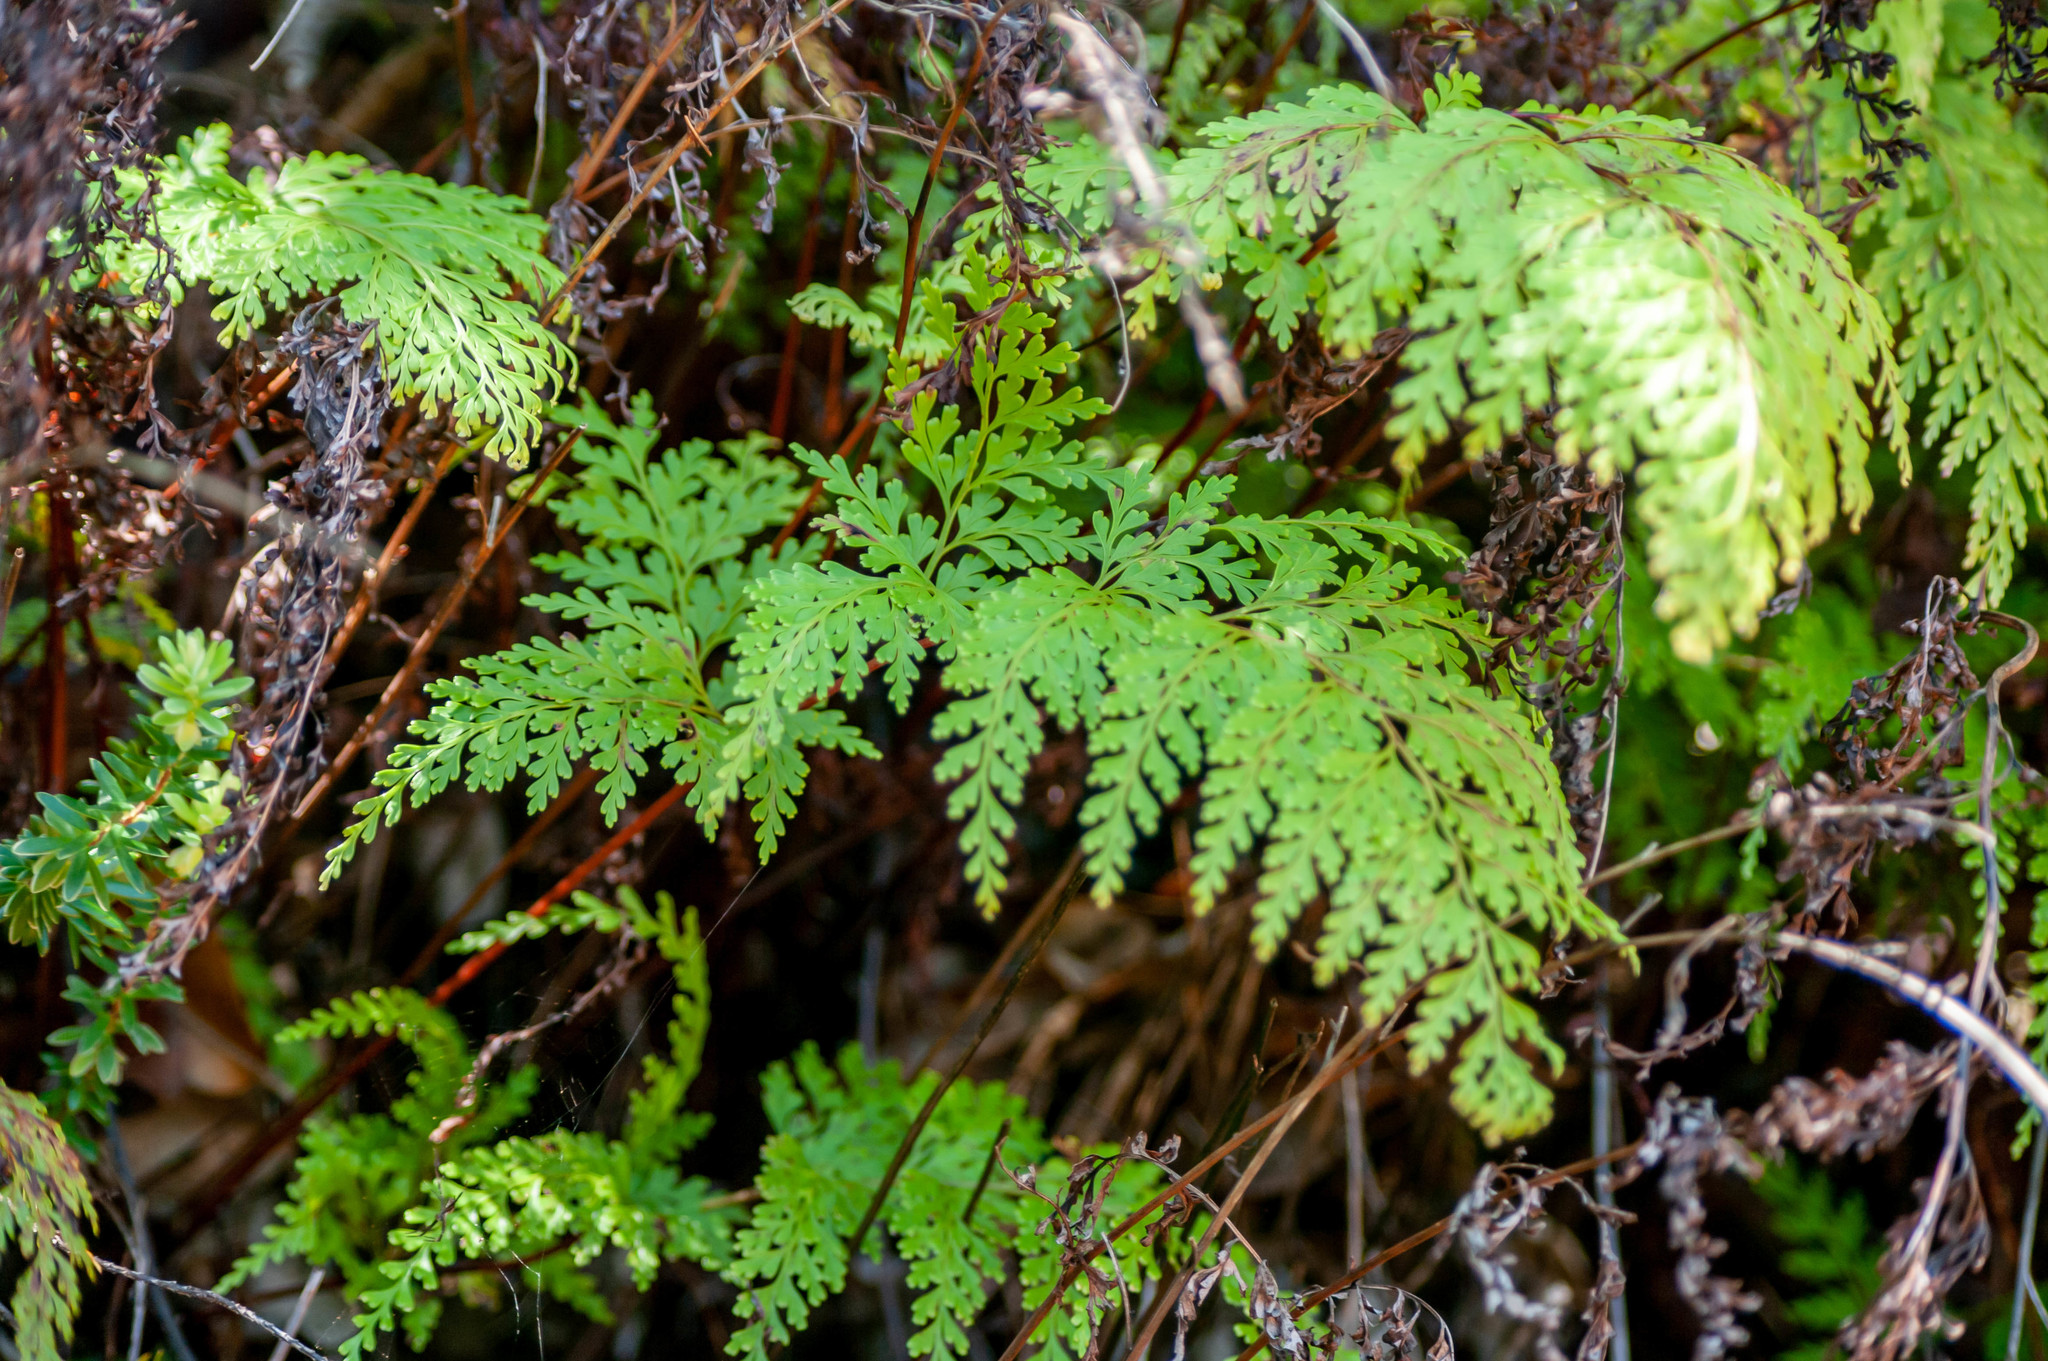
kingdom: Plantae
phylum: Tracheophyta
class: Polypodiopsida
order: Polypodiales
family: Lindsaeaceae
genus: Odontosoria
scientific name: Odontosoria chinensis
